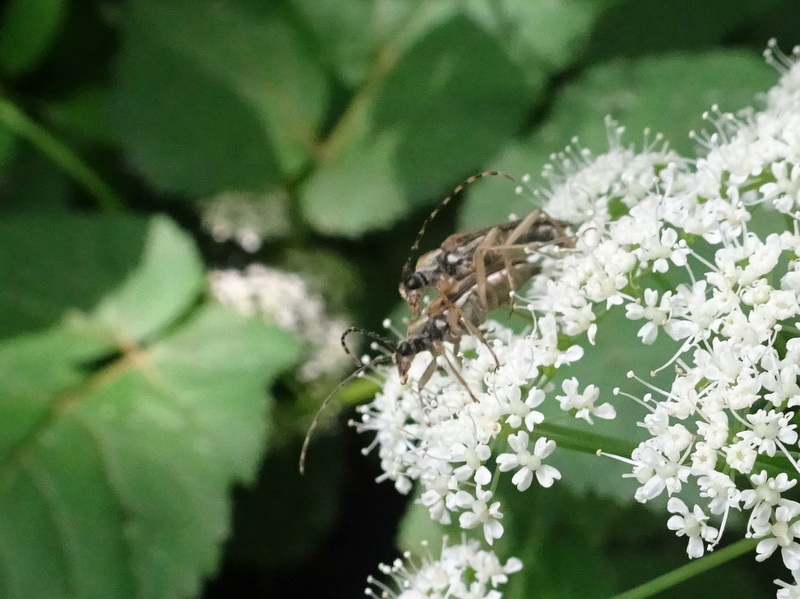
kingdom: Animalia
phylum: Arthropoda
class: Insecta
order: Coleoptera
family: Cerambycidae
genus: Analeptura
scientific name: Analeptura lineola
